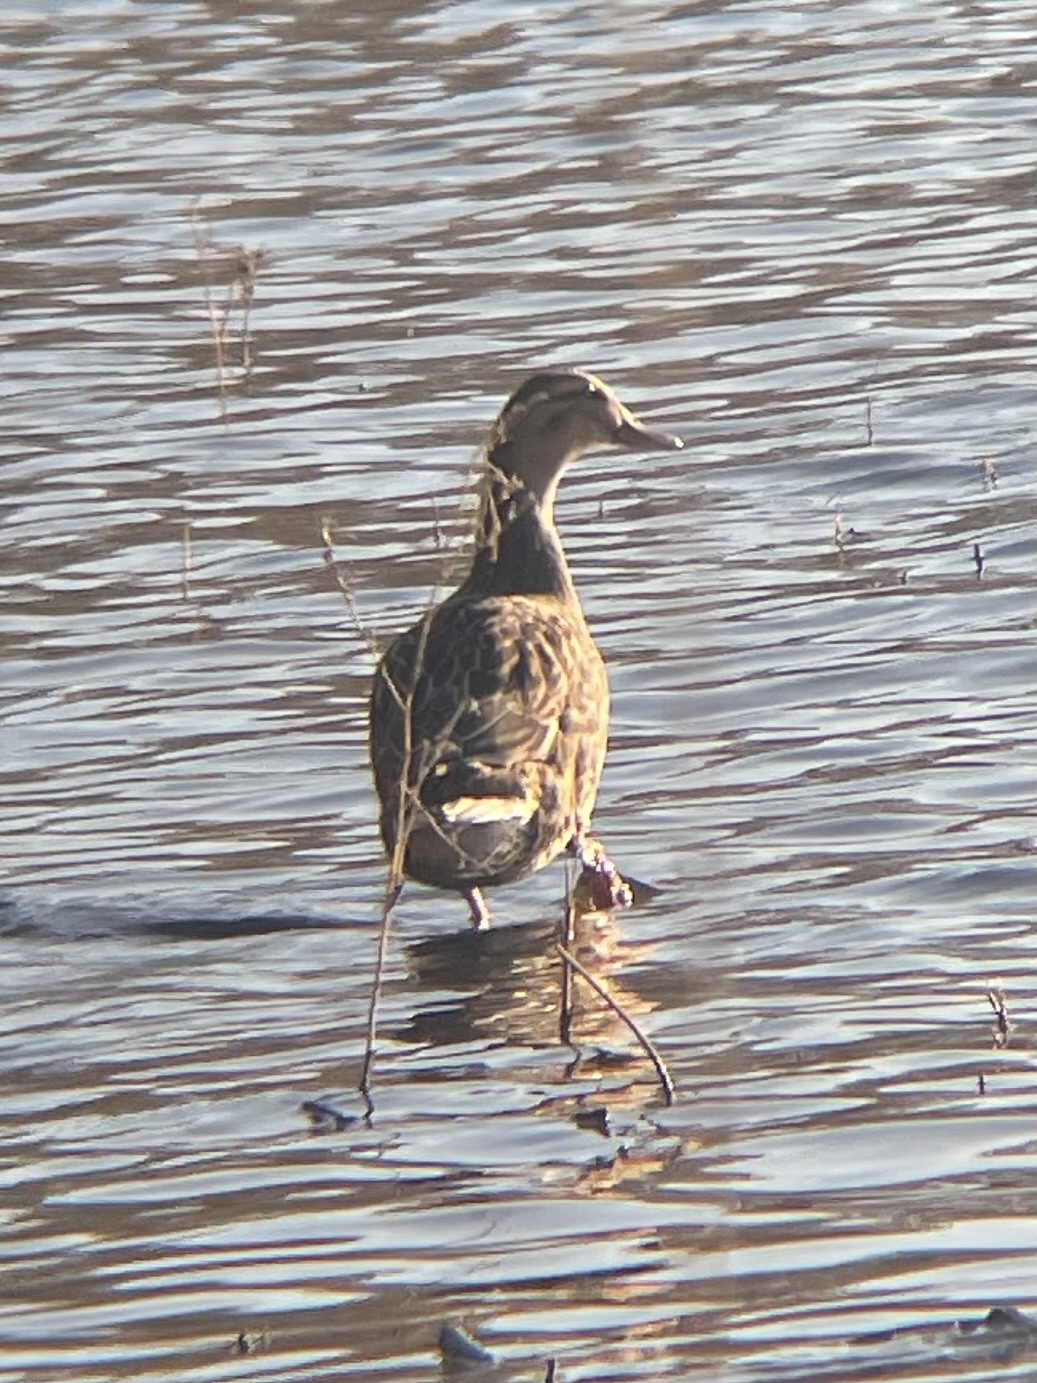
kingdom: Animalia
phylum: Chordata
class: Aves
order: Anseriformes
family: Anatidae
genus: Anas
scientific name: Anas platyrhynchos
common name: Mallard
